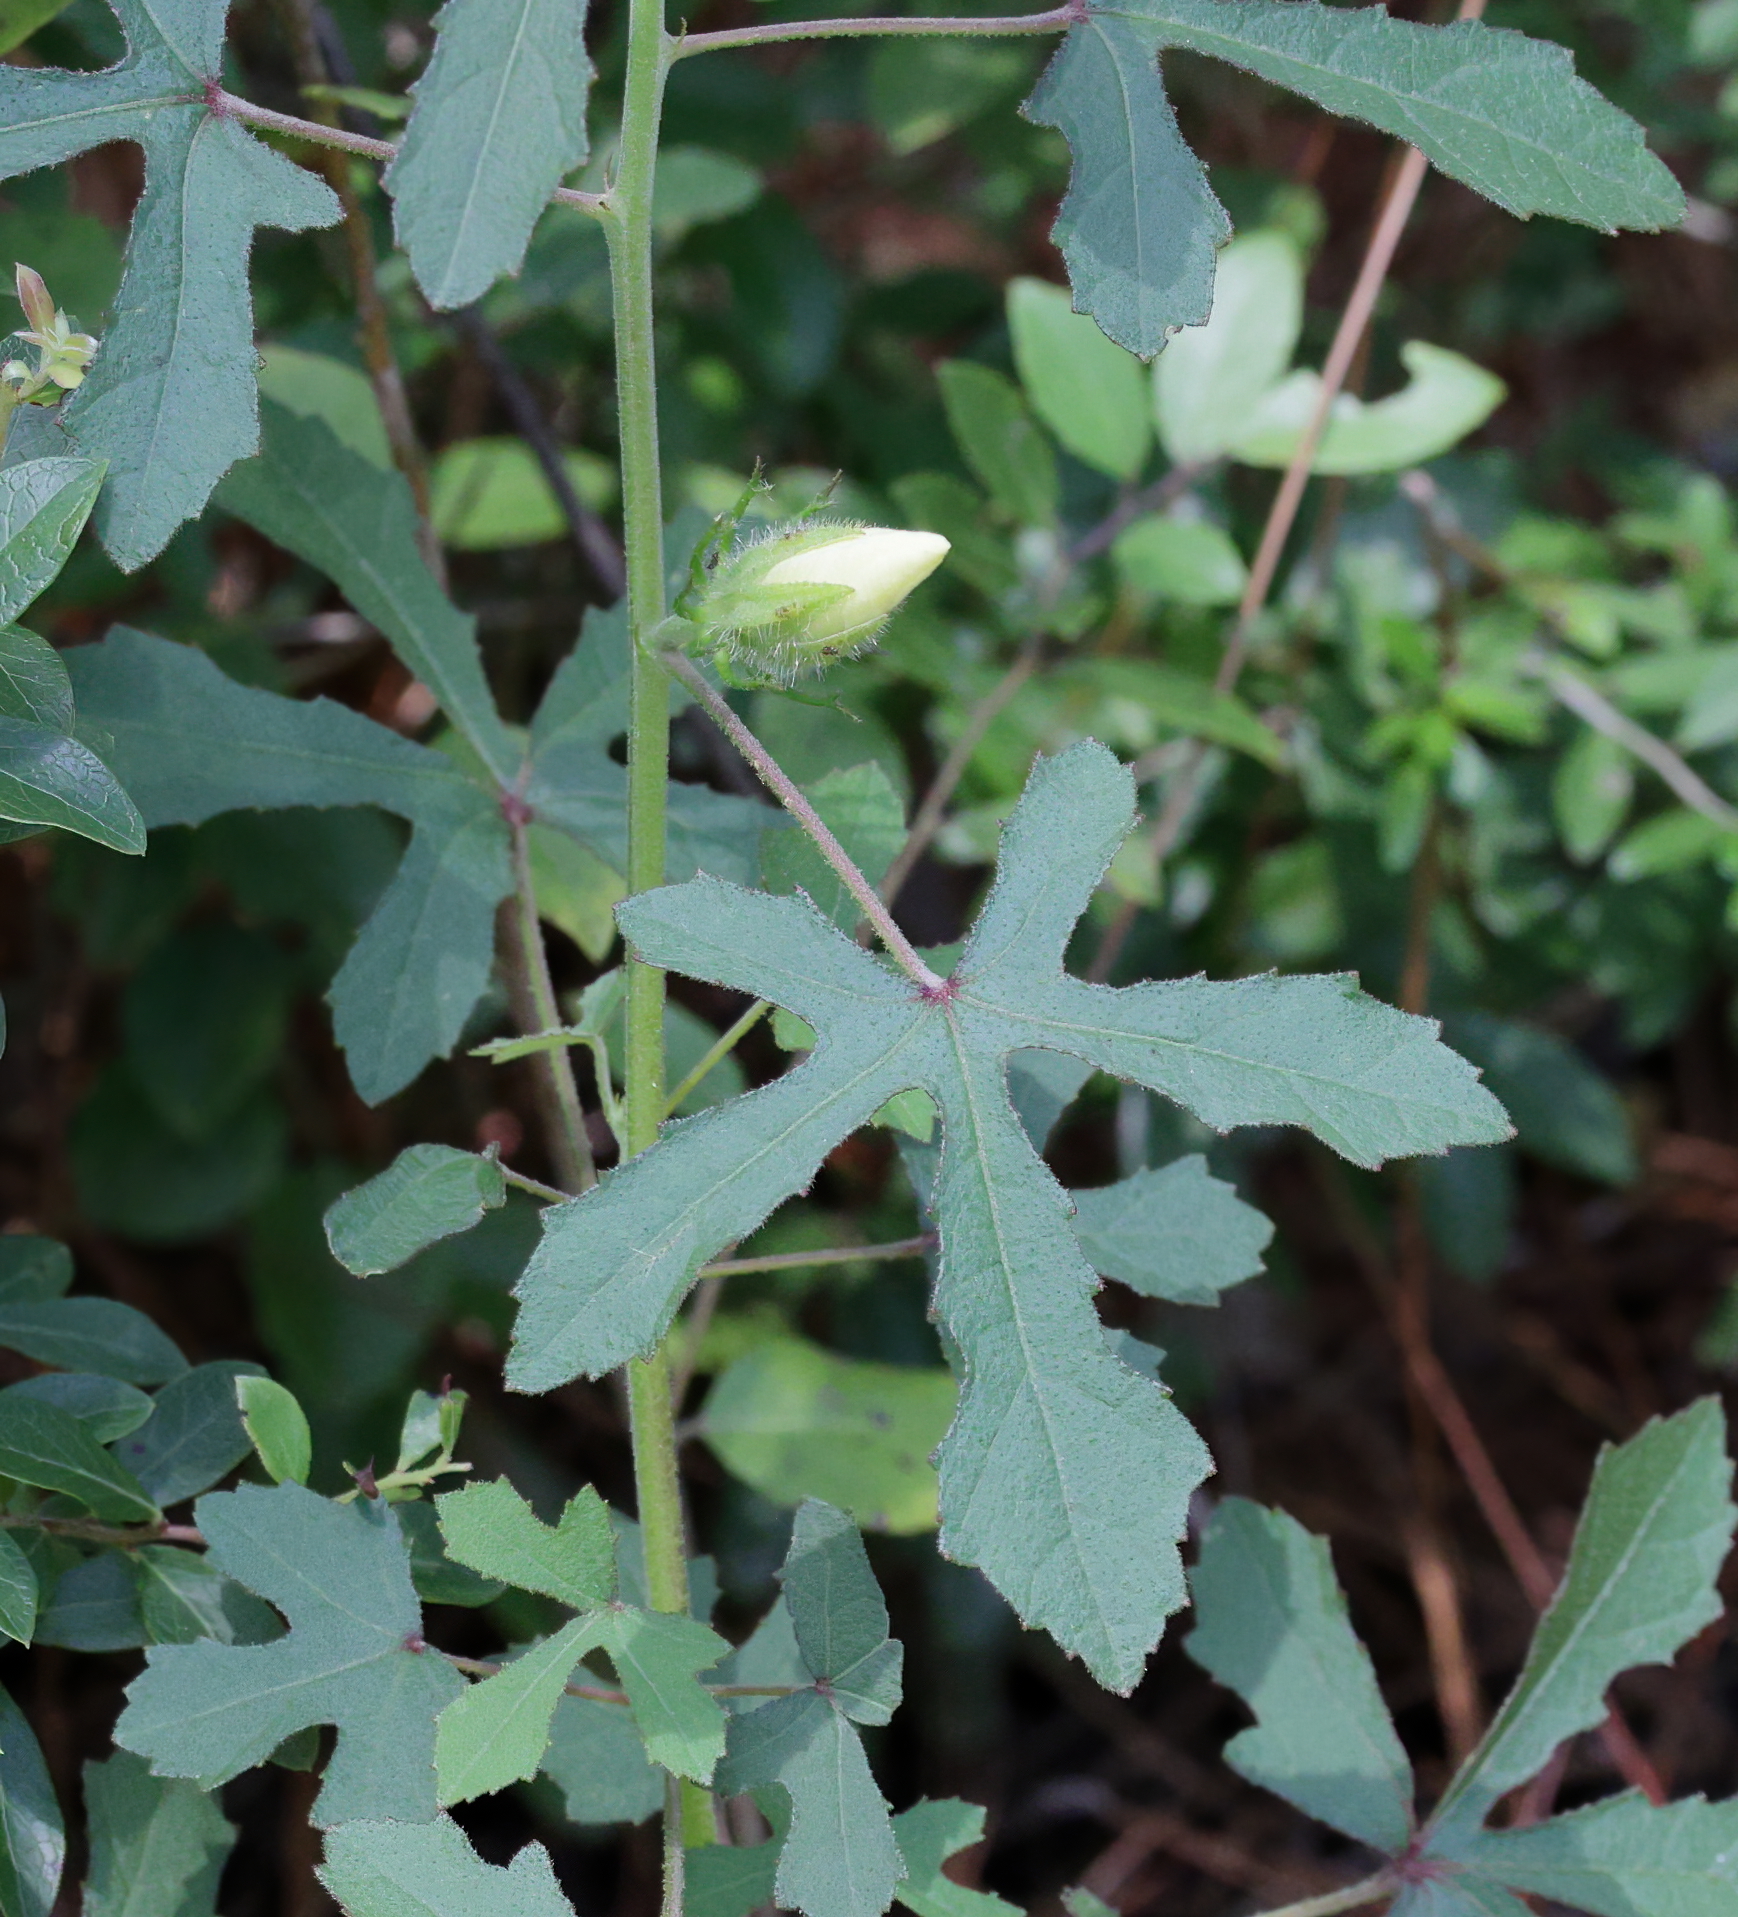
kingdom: Plantae
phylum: Tracheophyta
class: Magnoliopsida
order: Malvales
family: Malvaceae
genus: Hibiscus
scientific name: Hibiscus aculeatus
